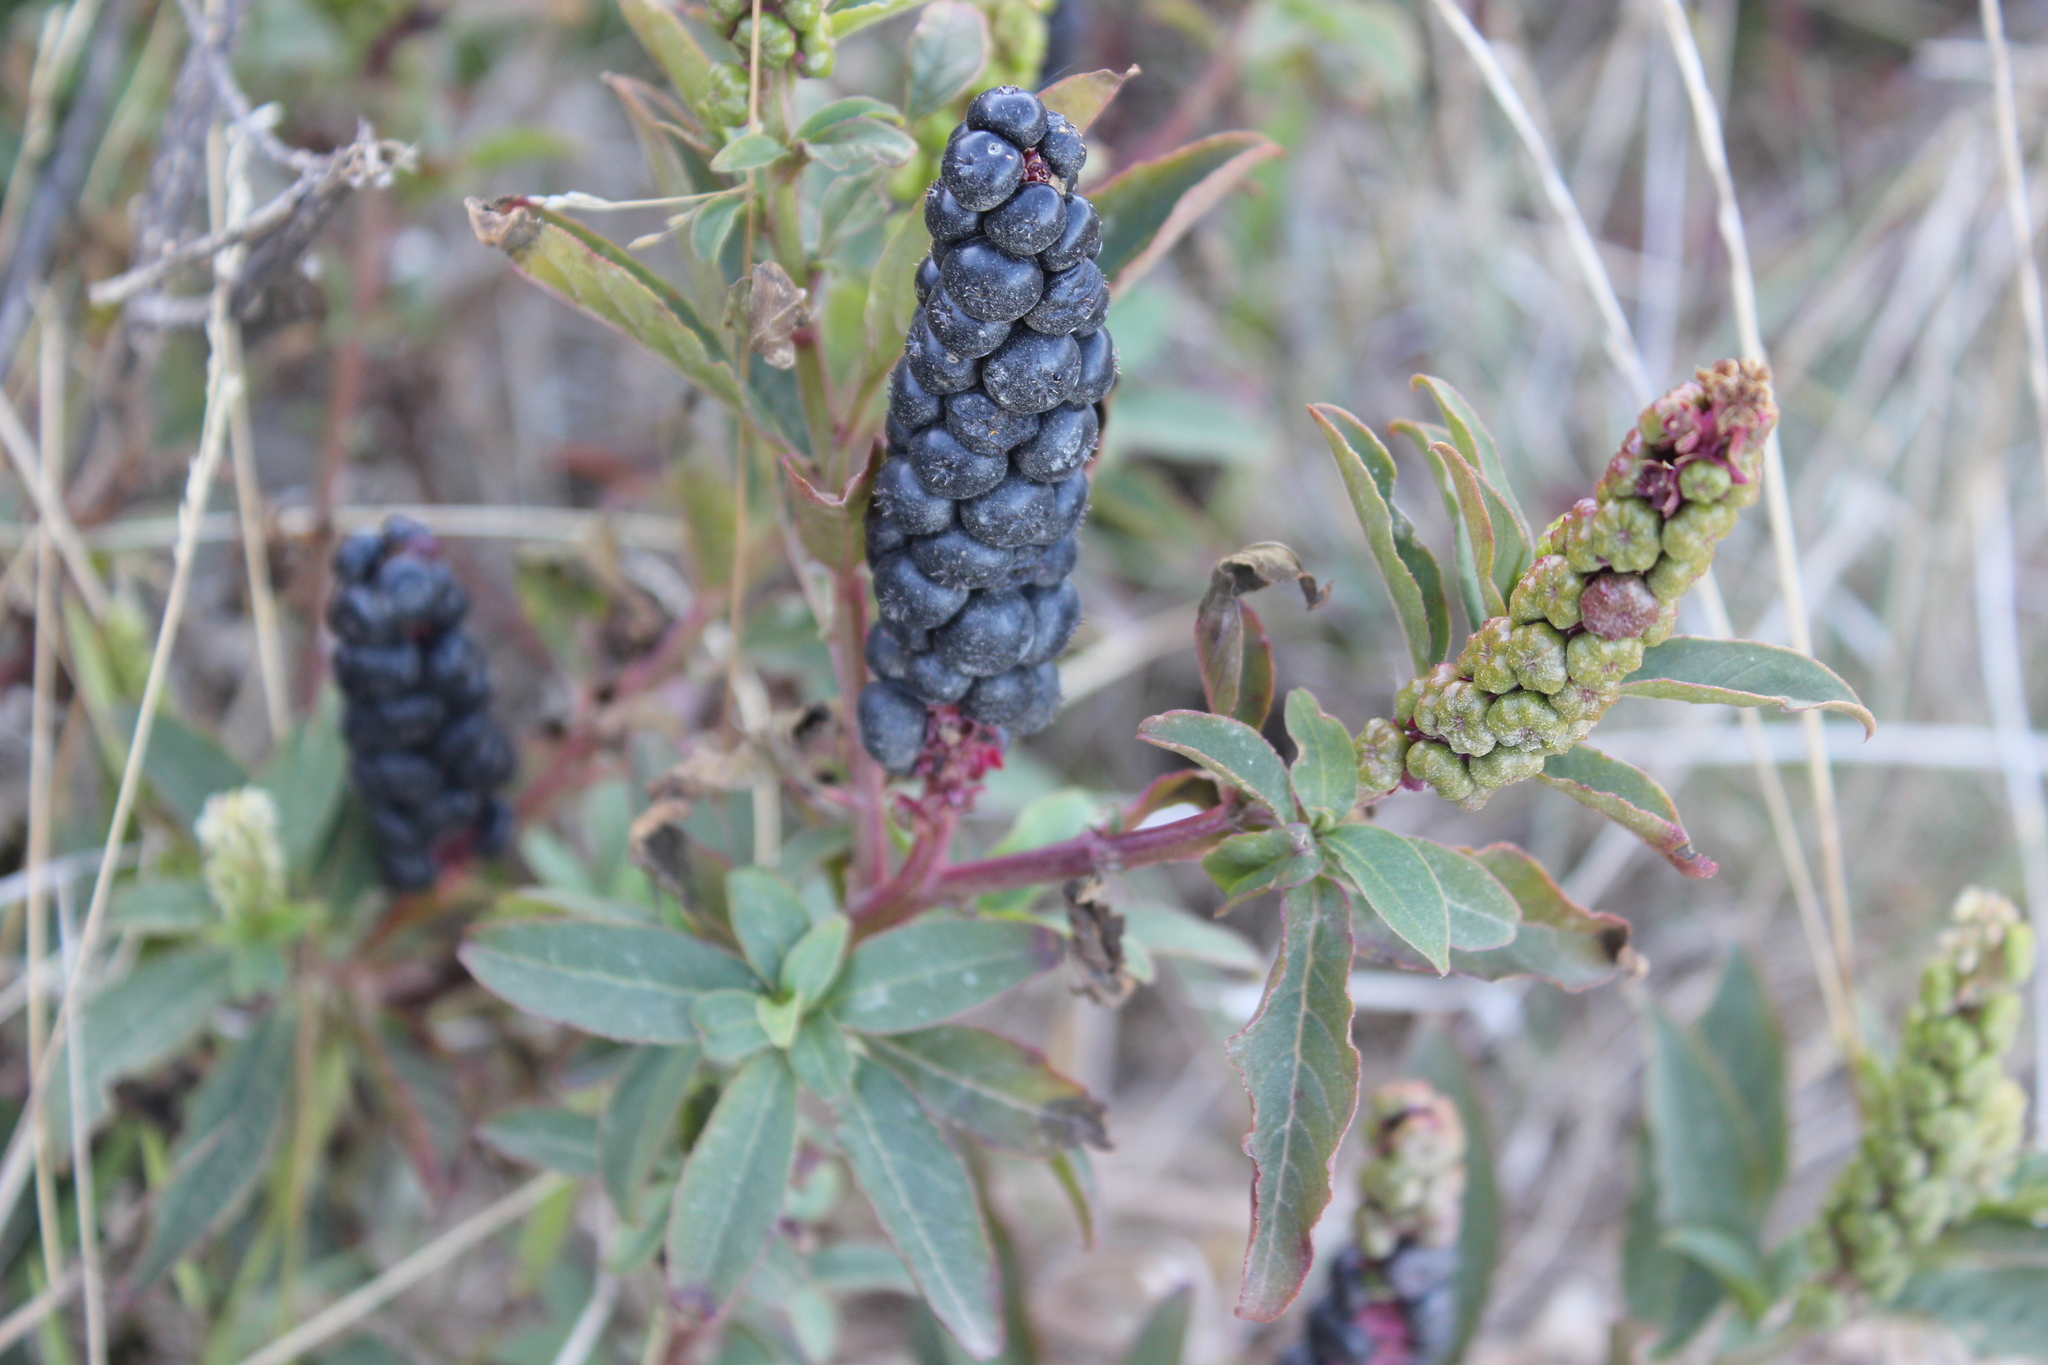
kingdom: Plantae
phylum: Tracheophyta
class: Magnoliopsida
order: Caryophyllales
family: Phytolaccaceae
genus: Phytolacca
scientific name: Phytolacca icosandra
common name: Button pokeweed
